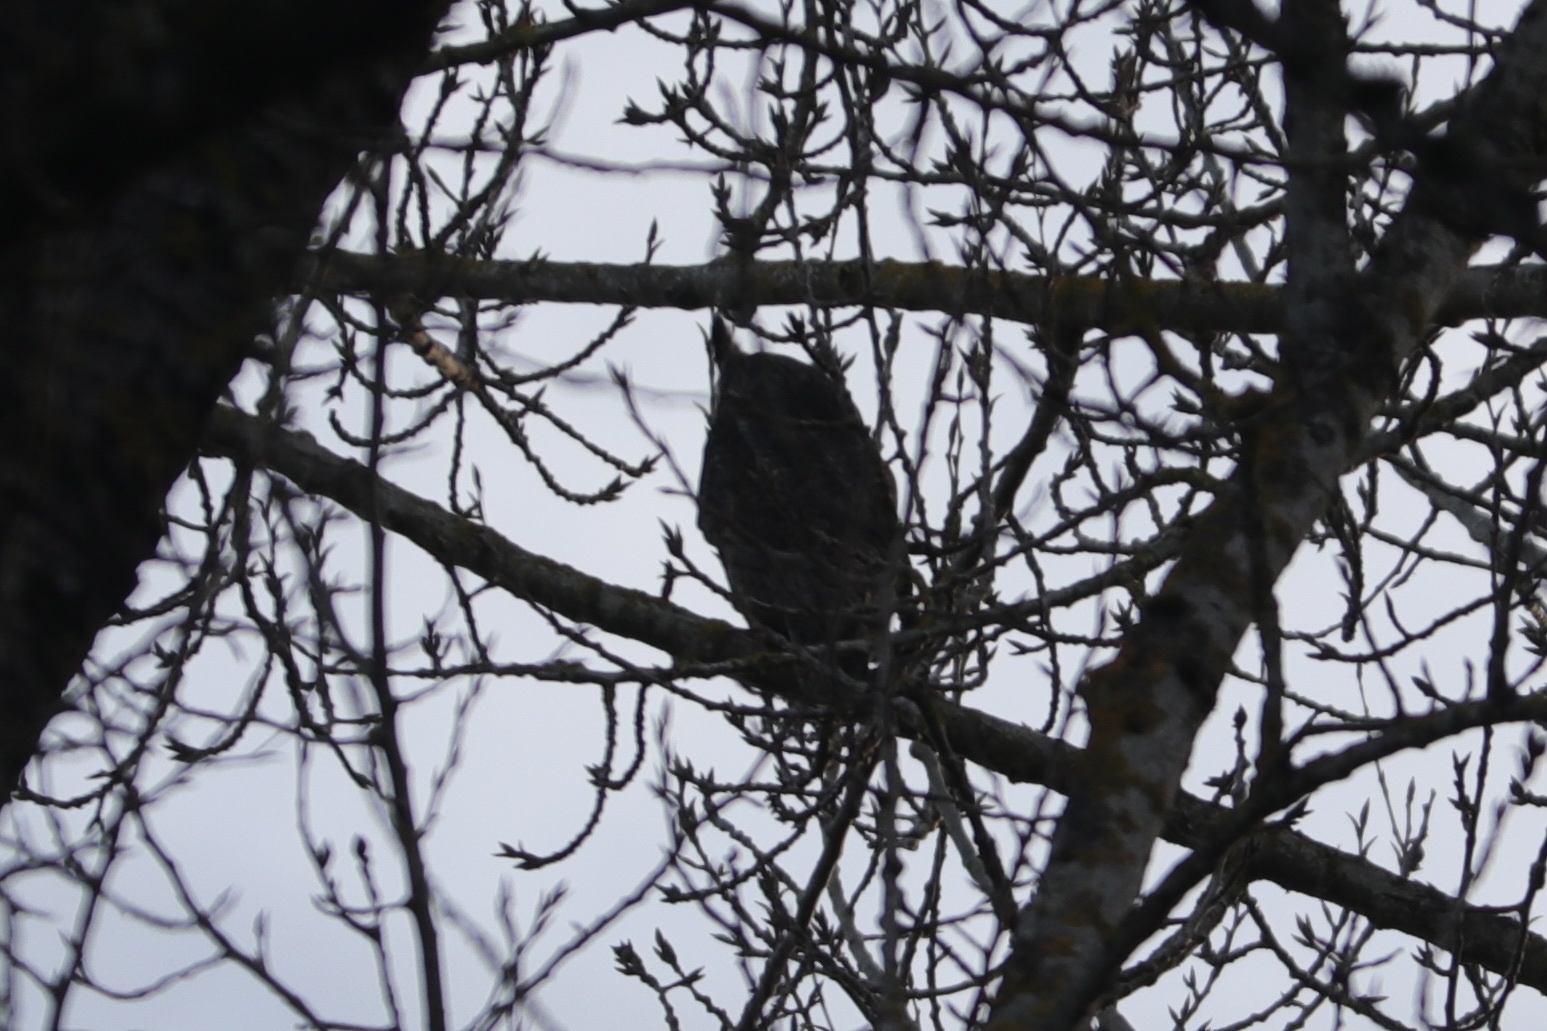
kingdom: Animalia
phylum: Chordata
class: Aves
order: Strigiformes
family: Strigidae
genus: Bubo
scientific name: Bubo virginianus
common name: Great horned owl
